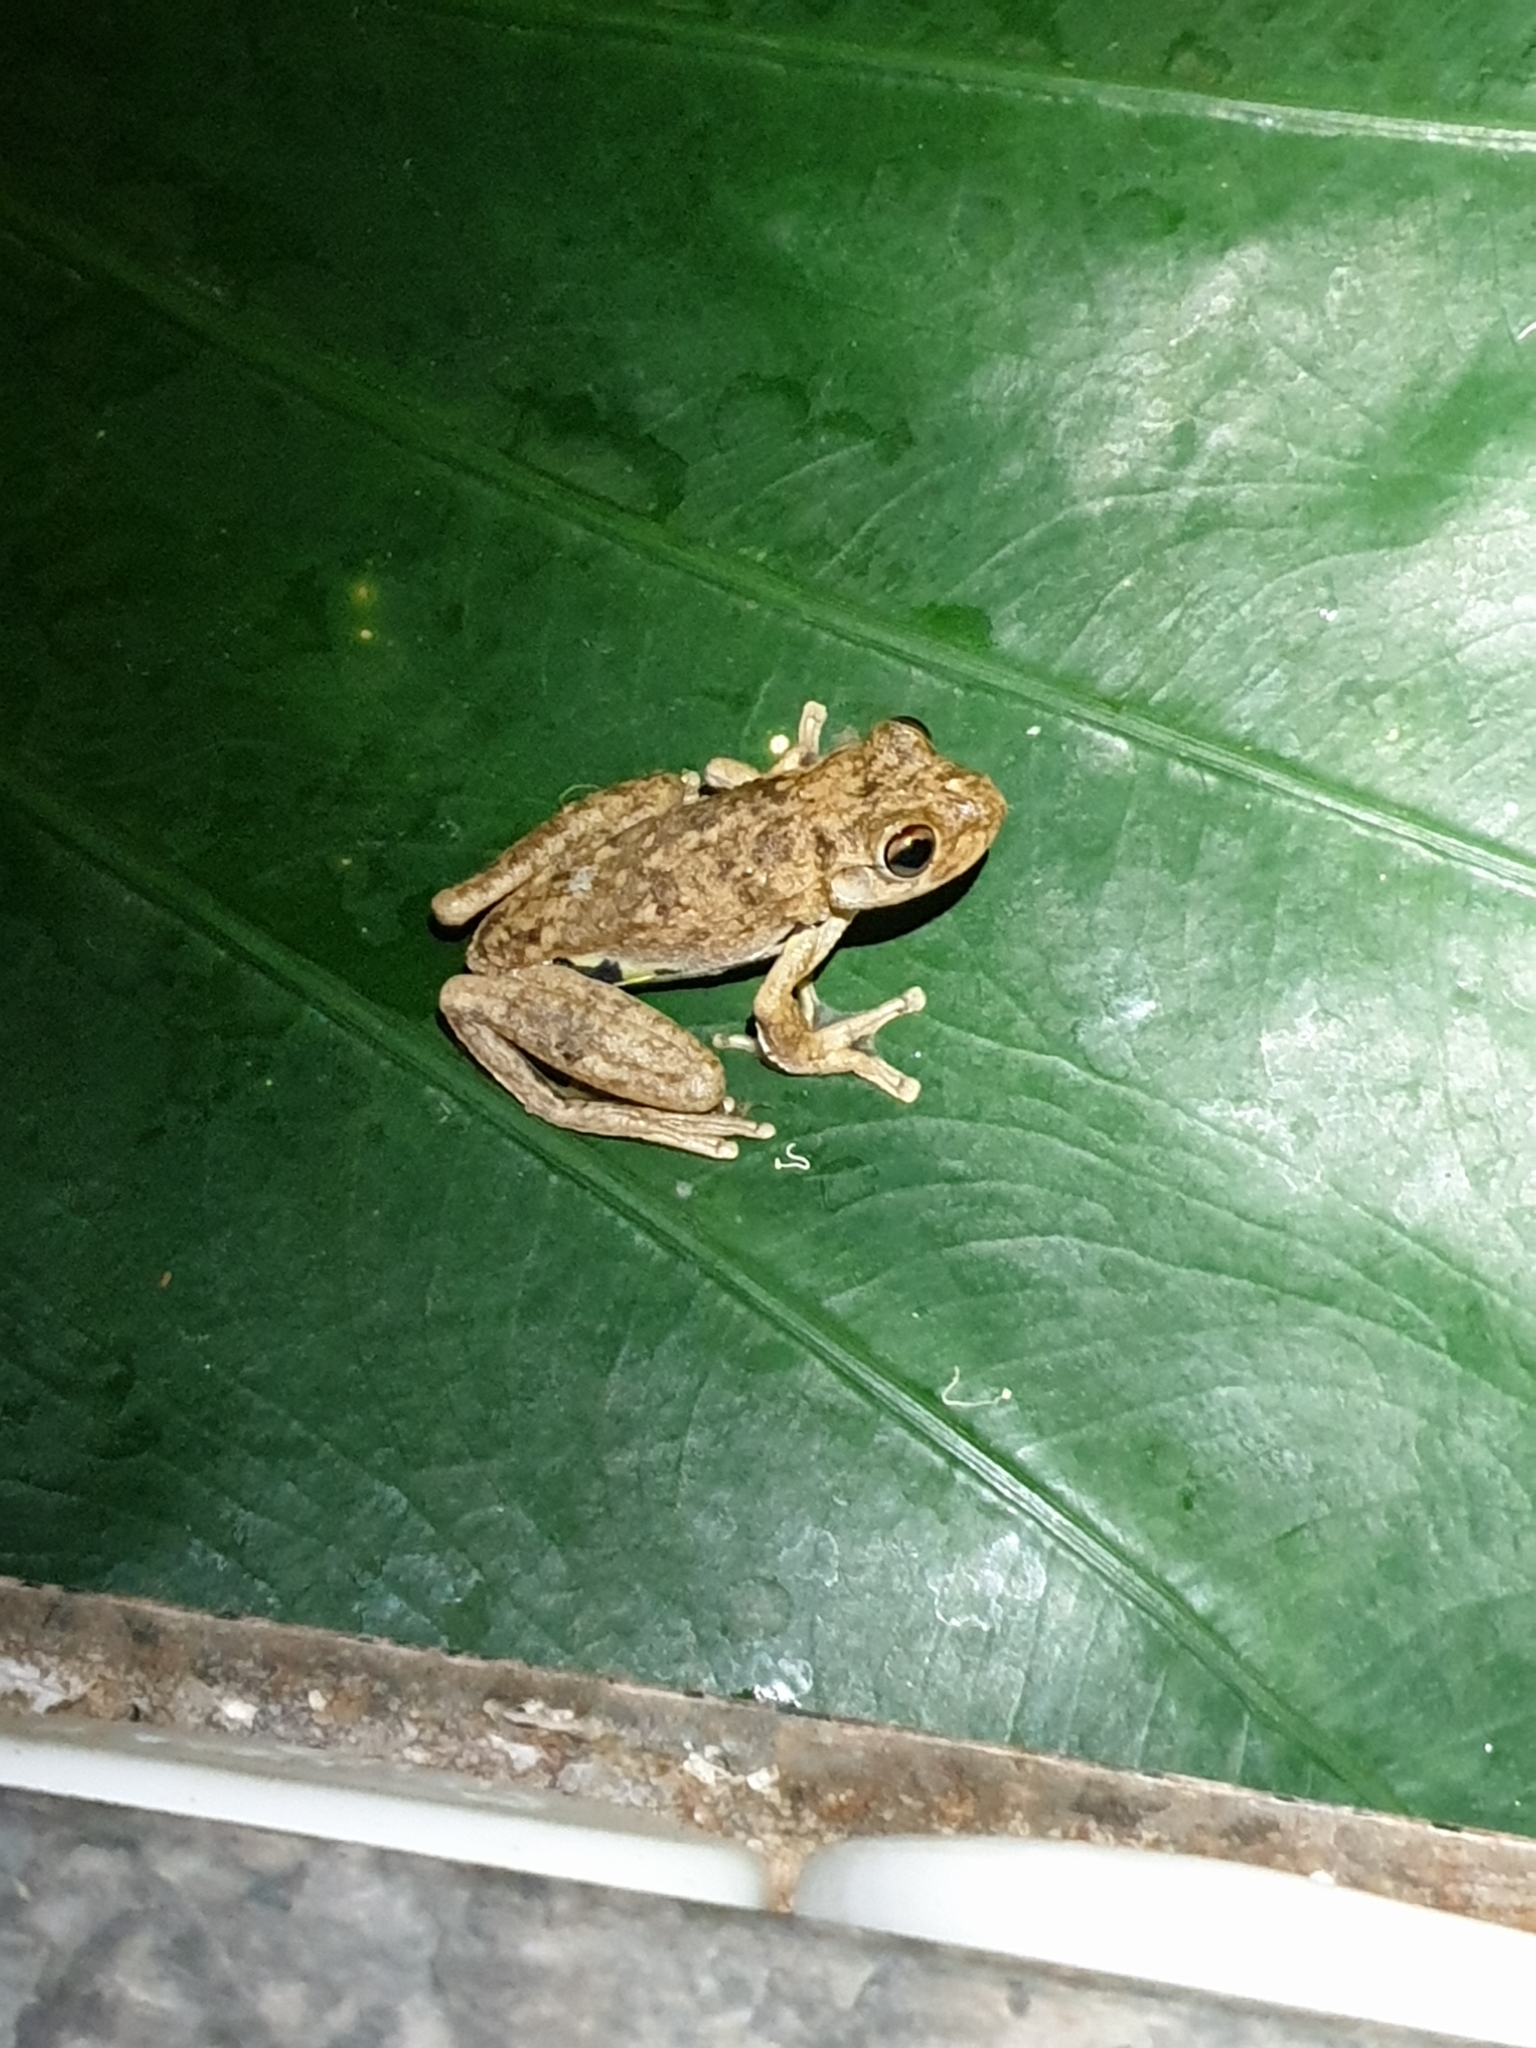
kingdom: Animalia
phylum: Chordata
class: Amphibia
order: Anura
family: Pelodryadidae
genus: Litoria
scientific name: Litoria rothii
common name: Roth’s tree frog
